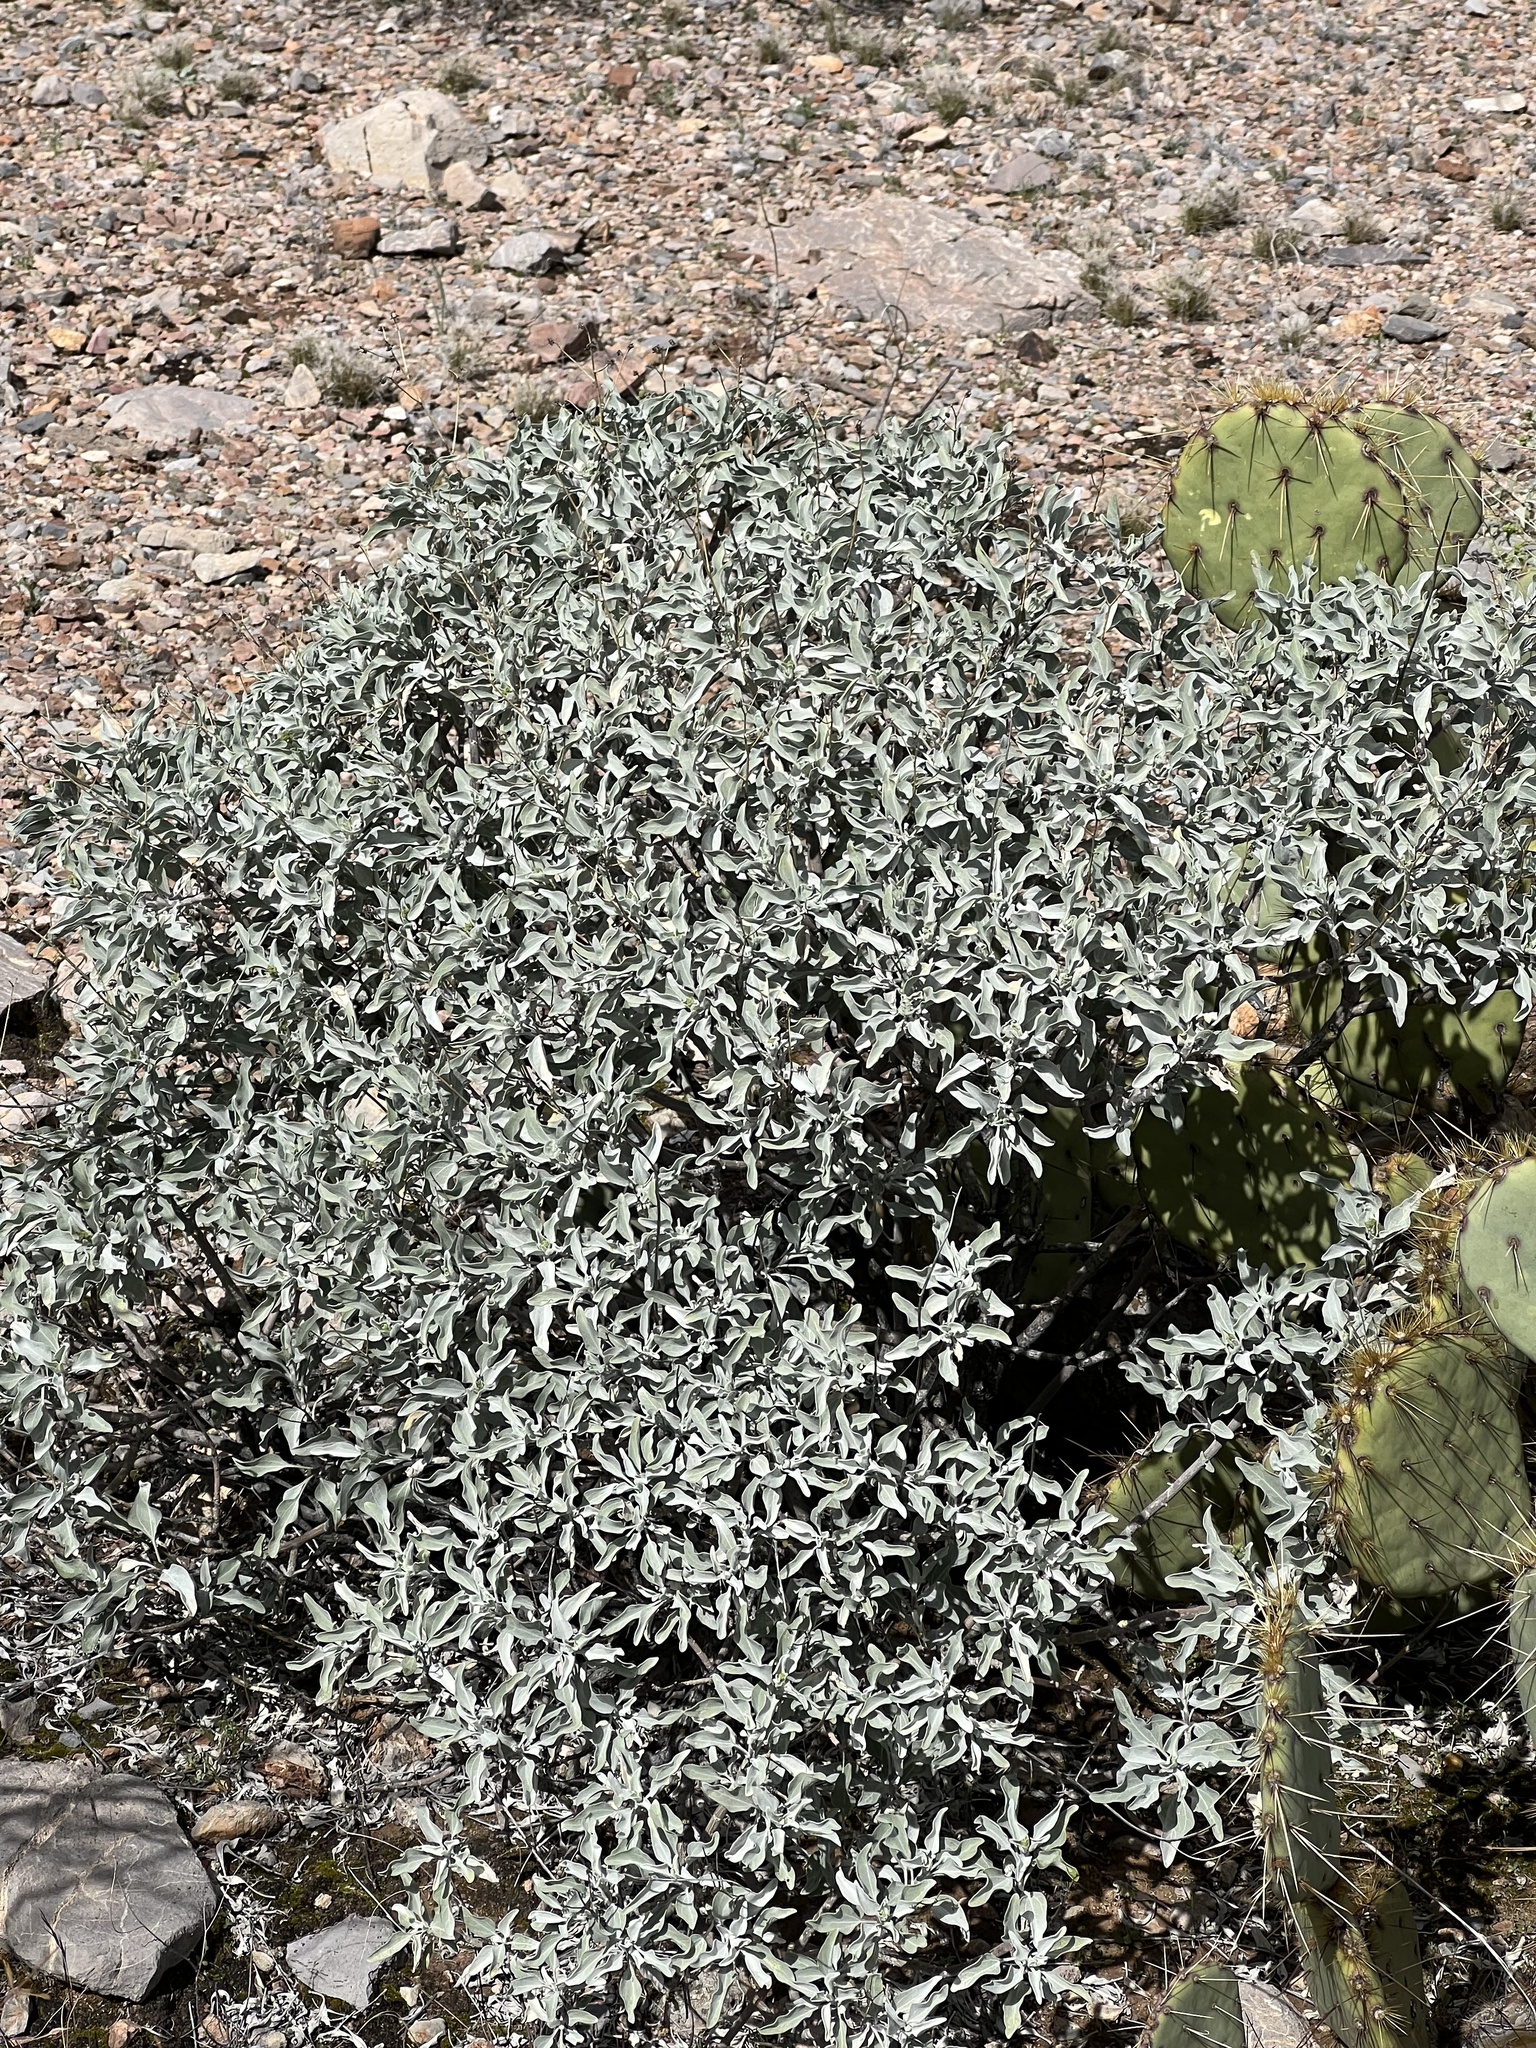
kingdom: Plantae
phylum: Tracheophyta
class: Magnoliopsida
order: Asterales
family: Asteraceae
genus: Encelia
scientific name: Encelia farinosa
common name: Brittlebush
